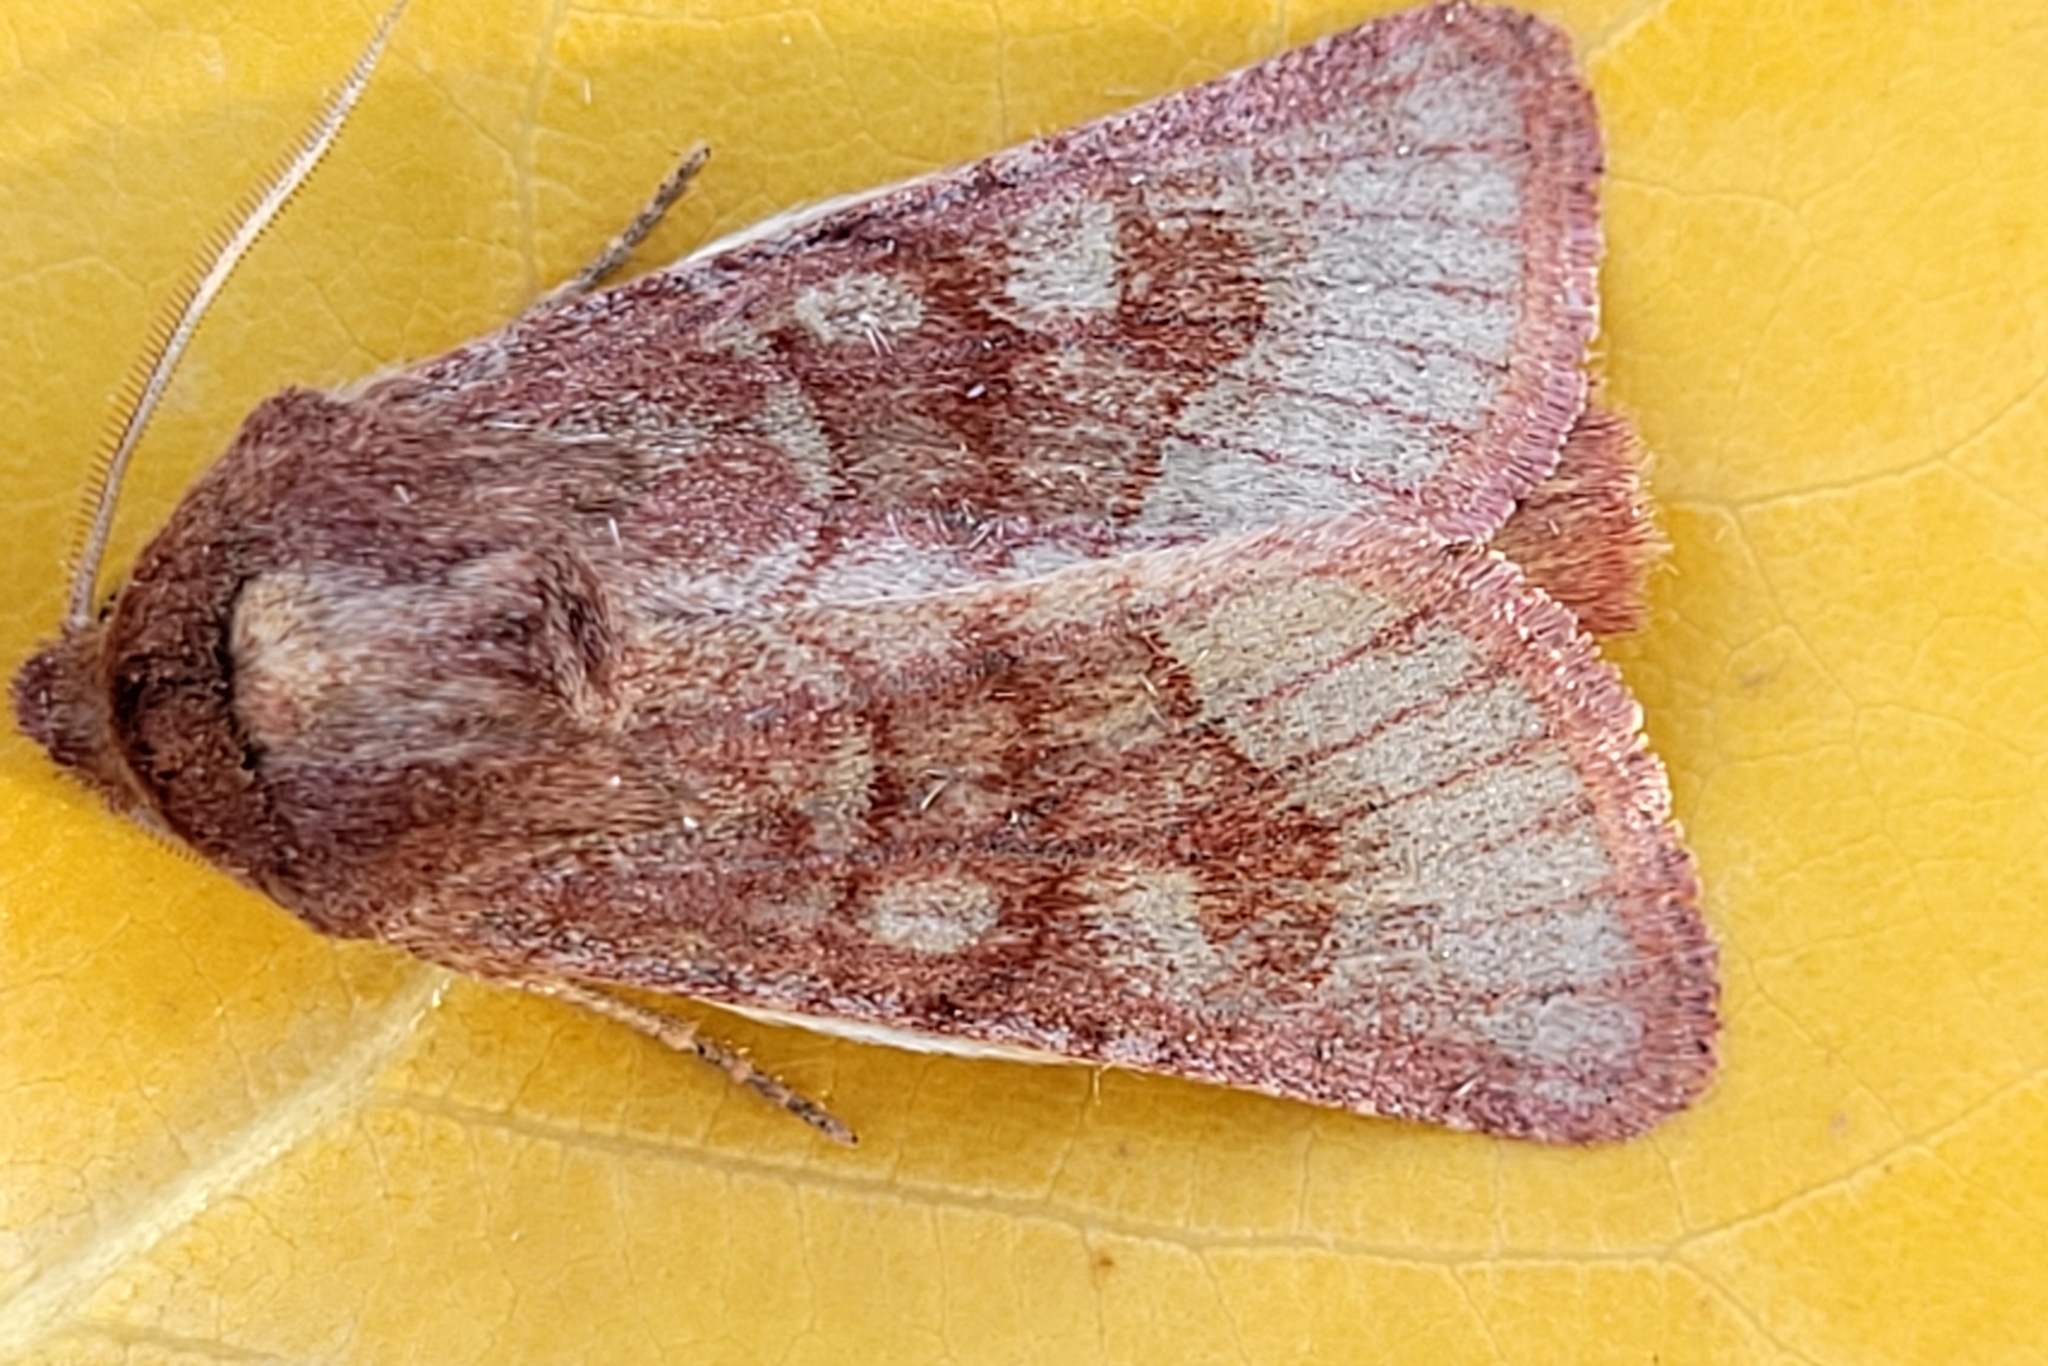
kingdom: Animalia
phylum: Arthropoda
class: Insecta
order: Lepidoptera
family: Noctuidae
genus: Nephelodes
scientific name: Nephelodes minians
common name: Bronzed cutworm
